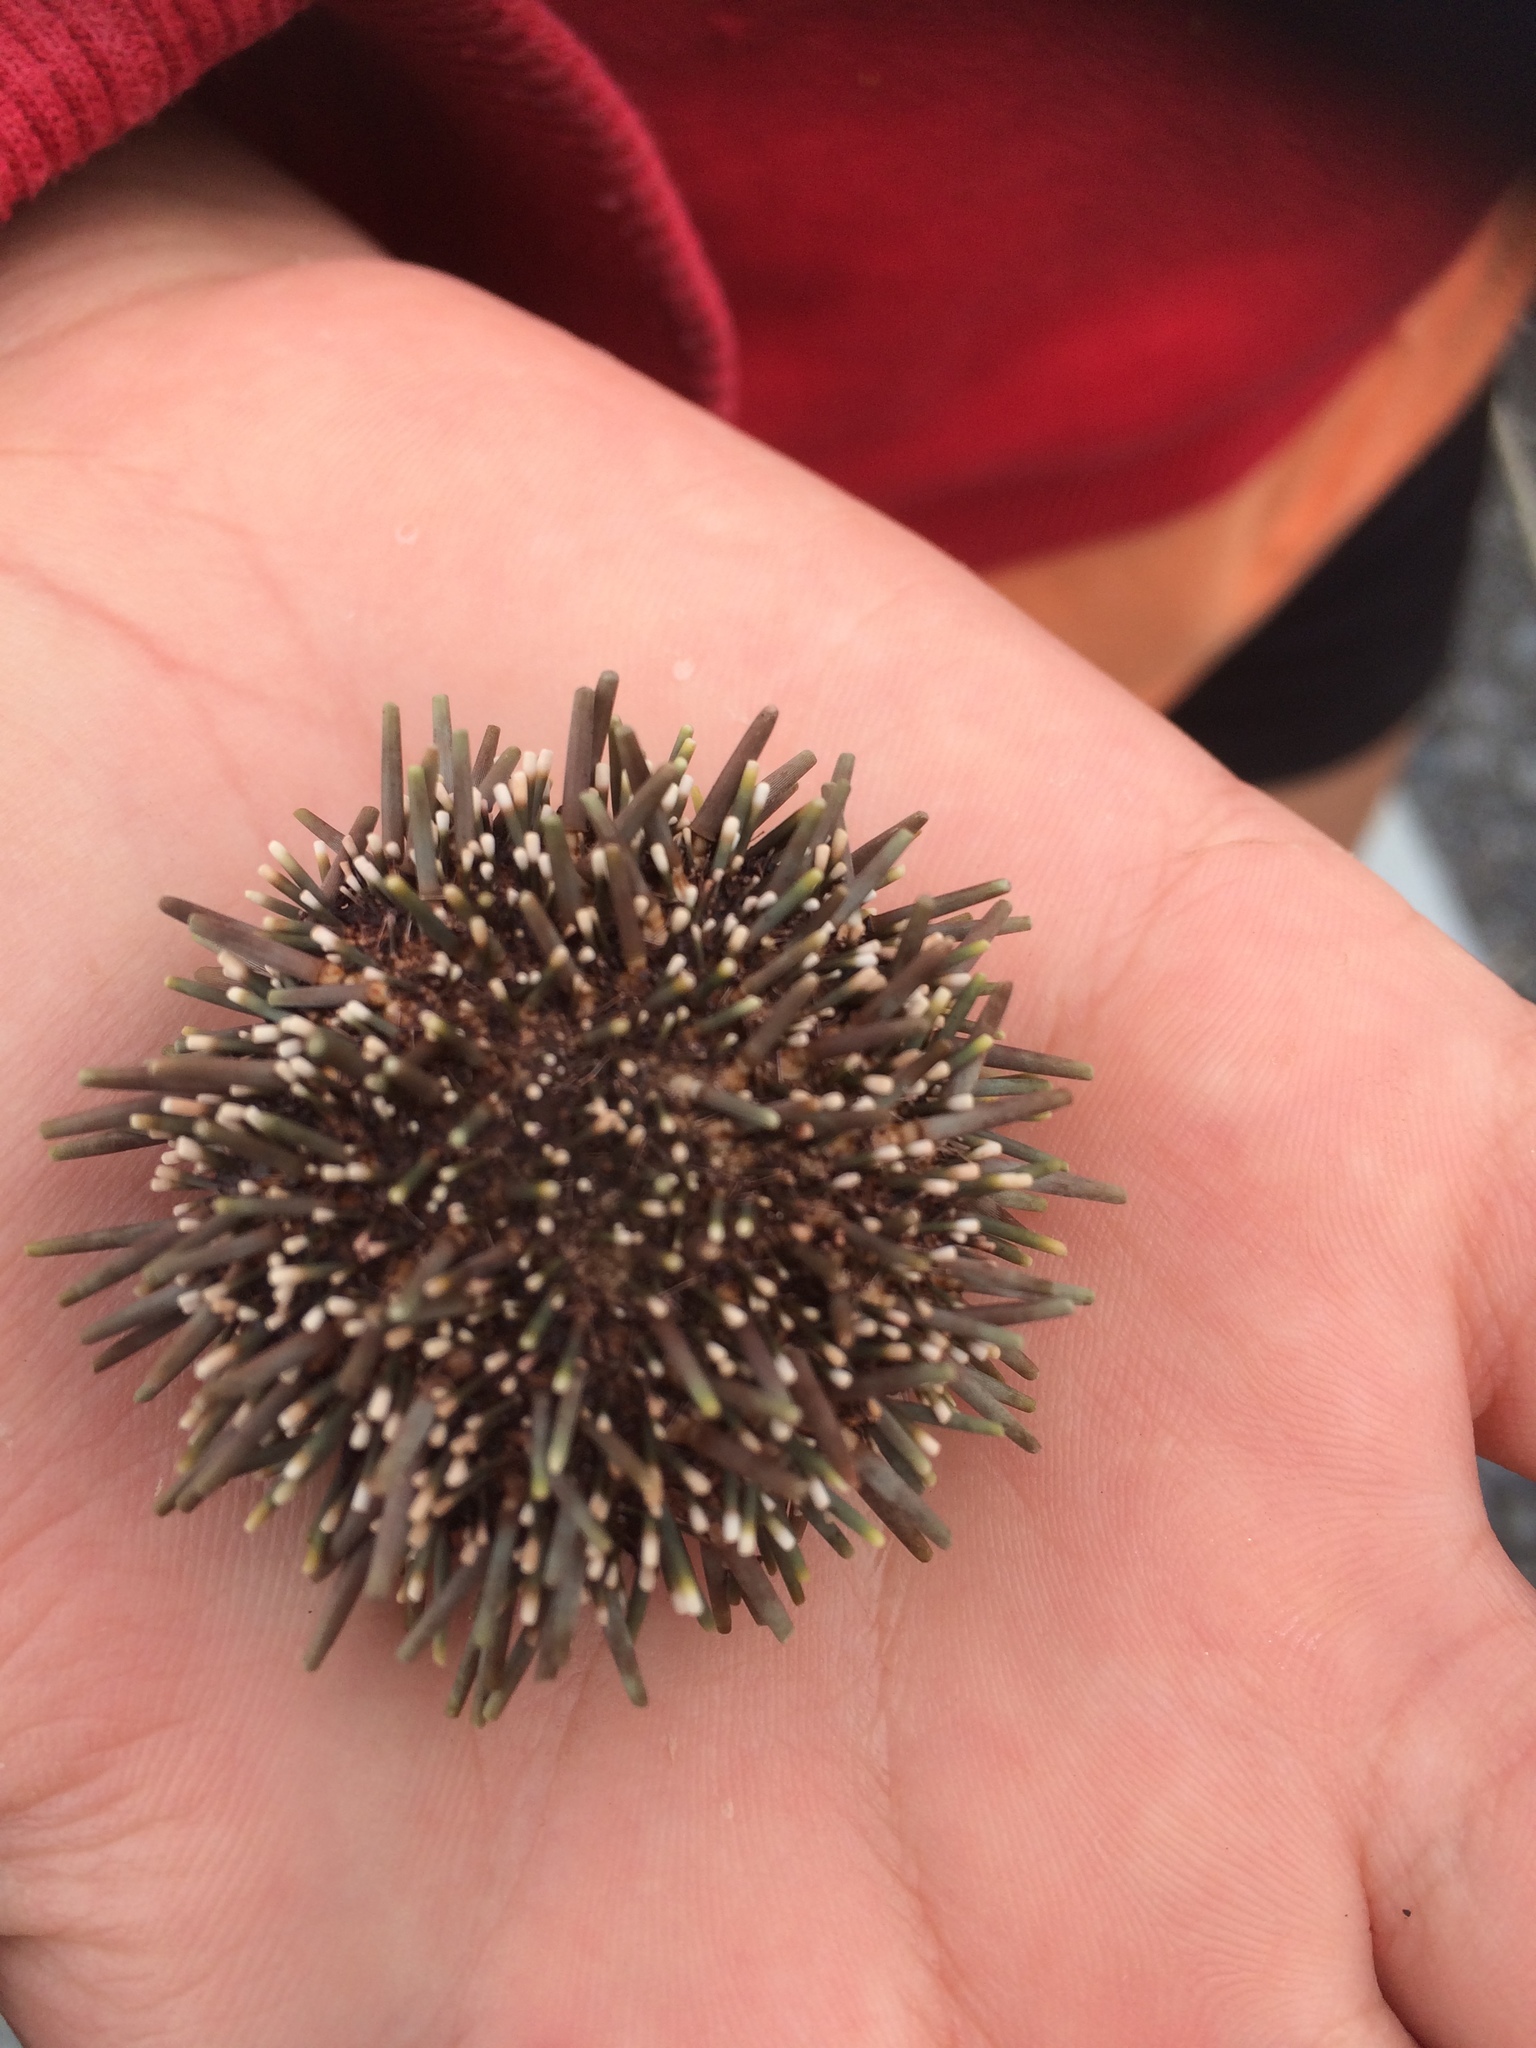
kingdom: Animalia
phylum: Echinodermata
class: Echinoidea
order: Camarodonta
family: Echinometridae
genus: Evechinus
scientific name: Evechinus chloroticus
